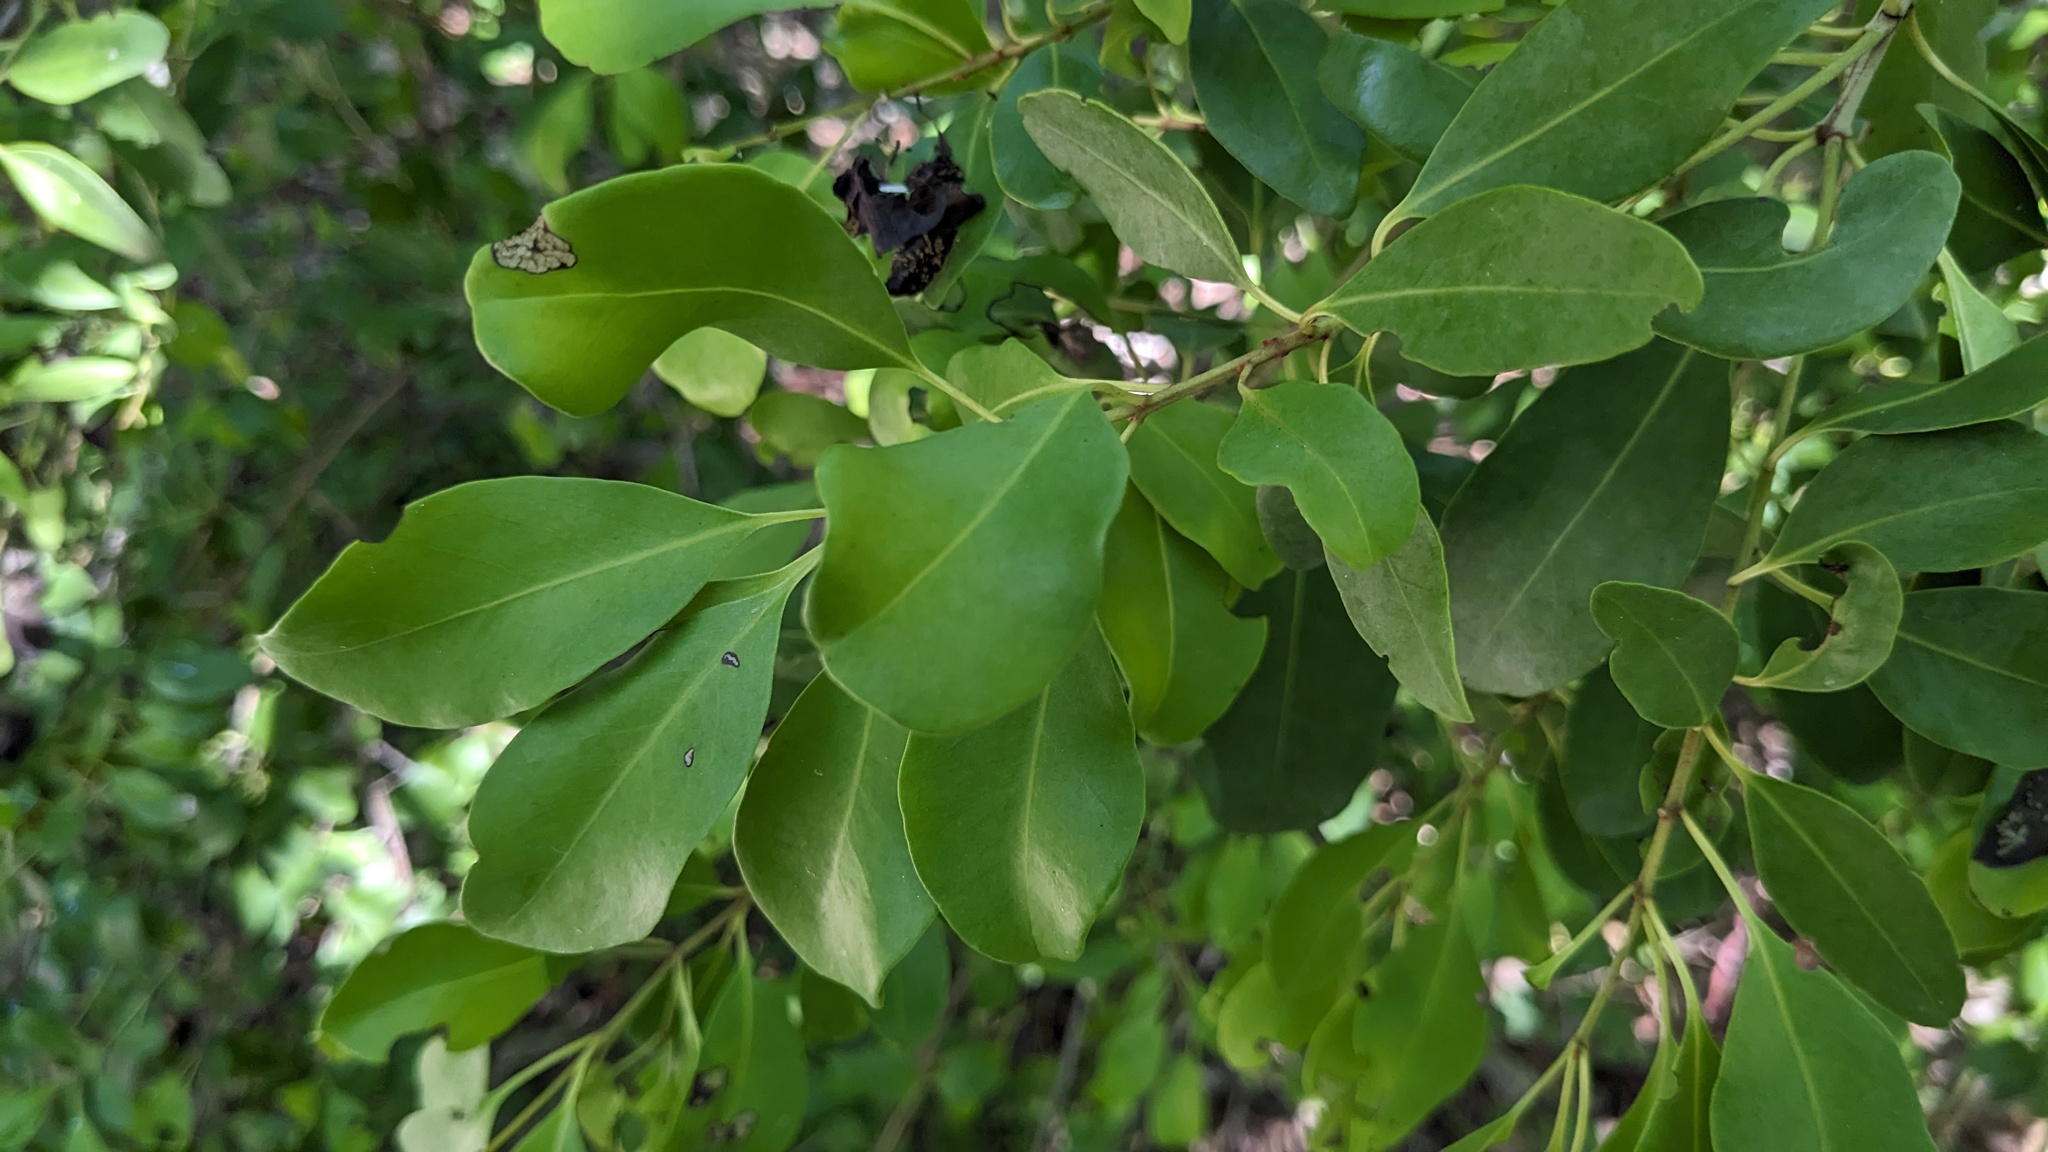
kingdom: Plantae
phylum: Tracheophyta
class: Magnoliopsida
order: Caryophyllales
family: Nyctaginaceae
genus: Guapira
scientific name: Guapira discolor
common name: Beeftree
